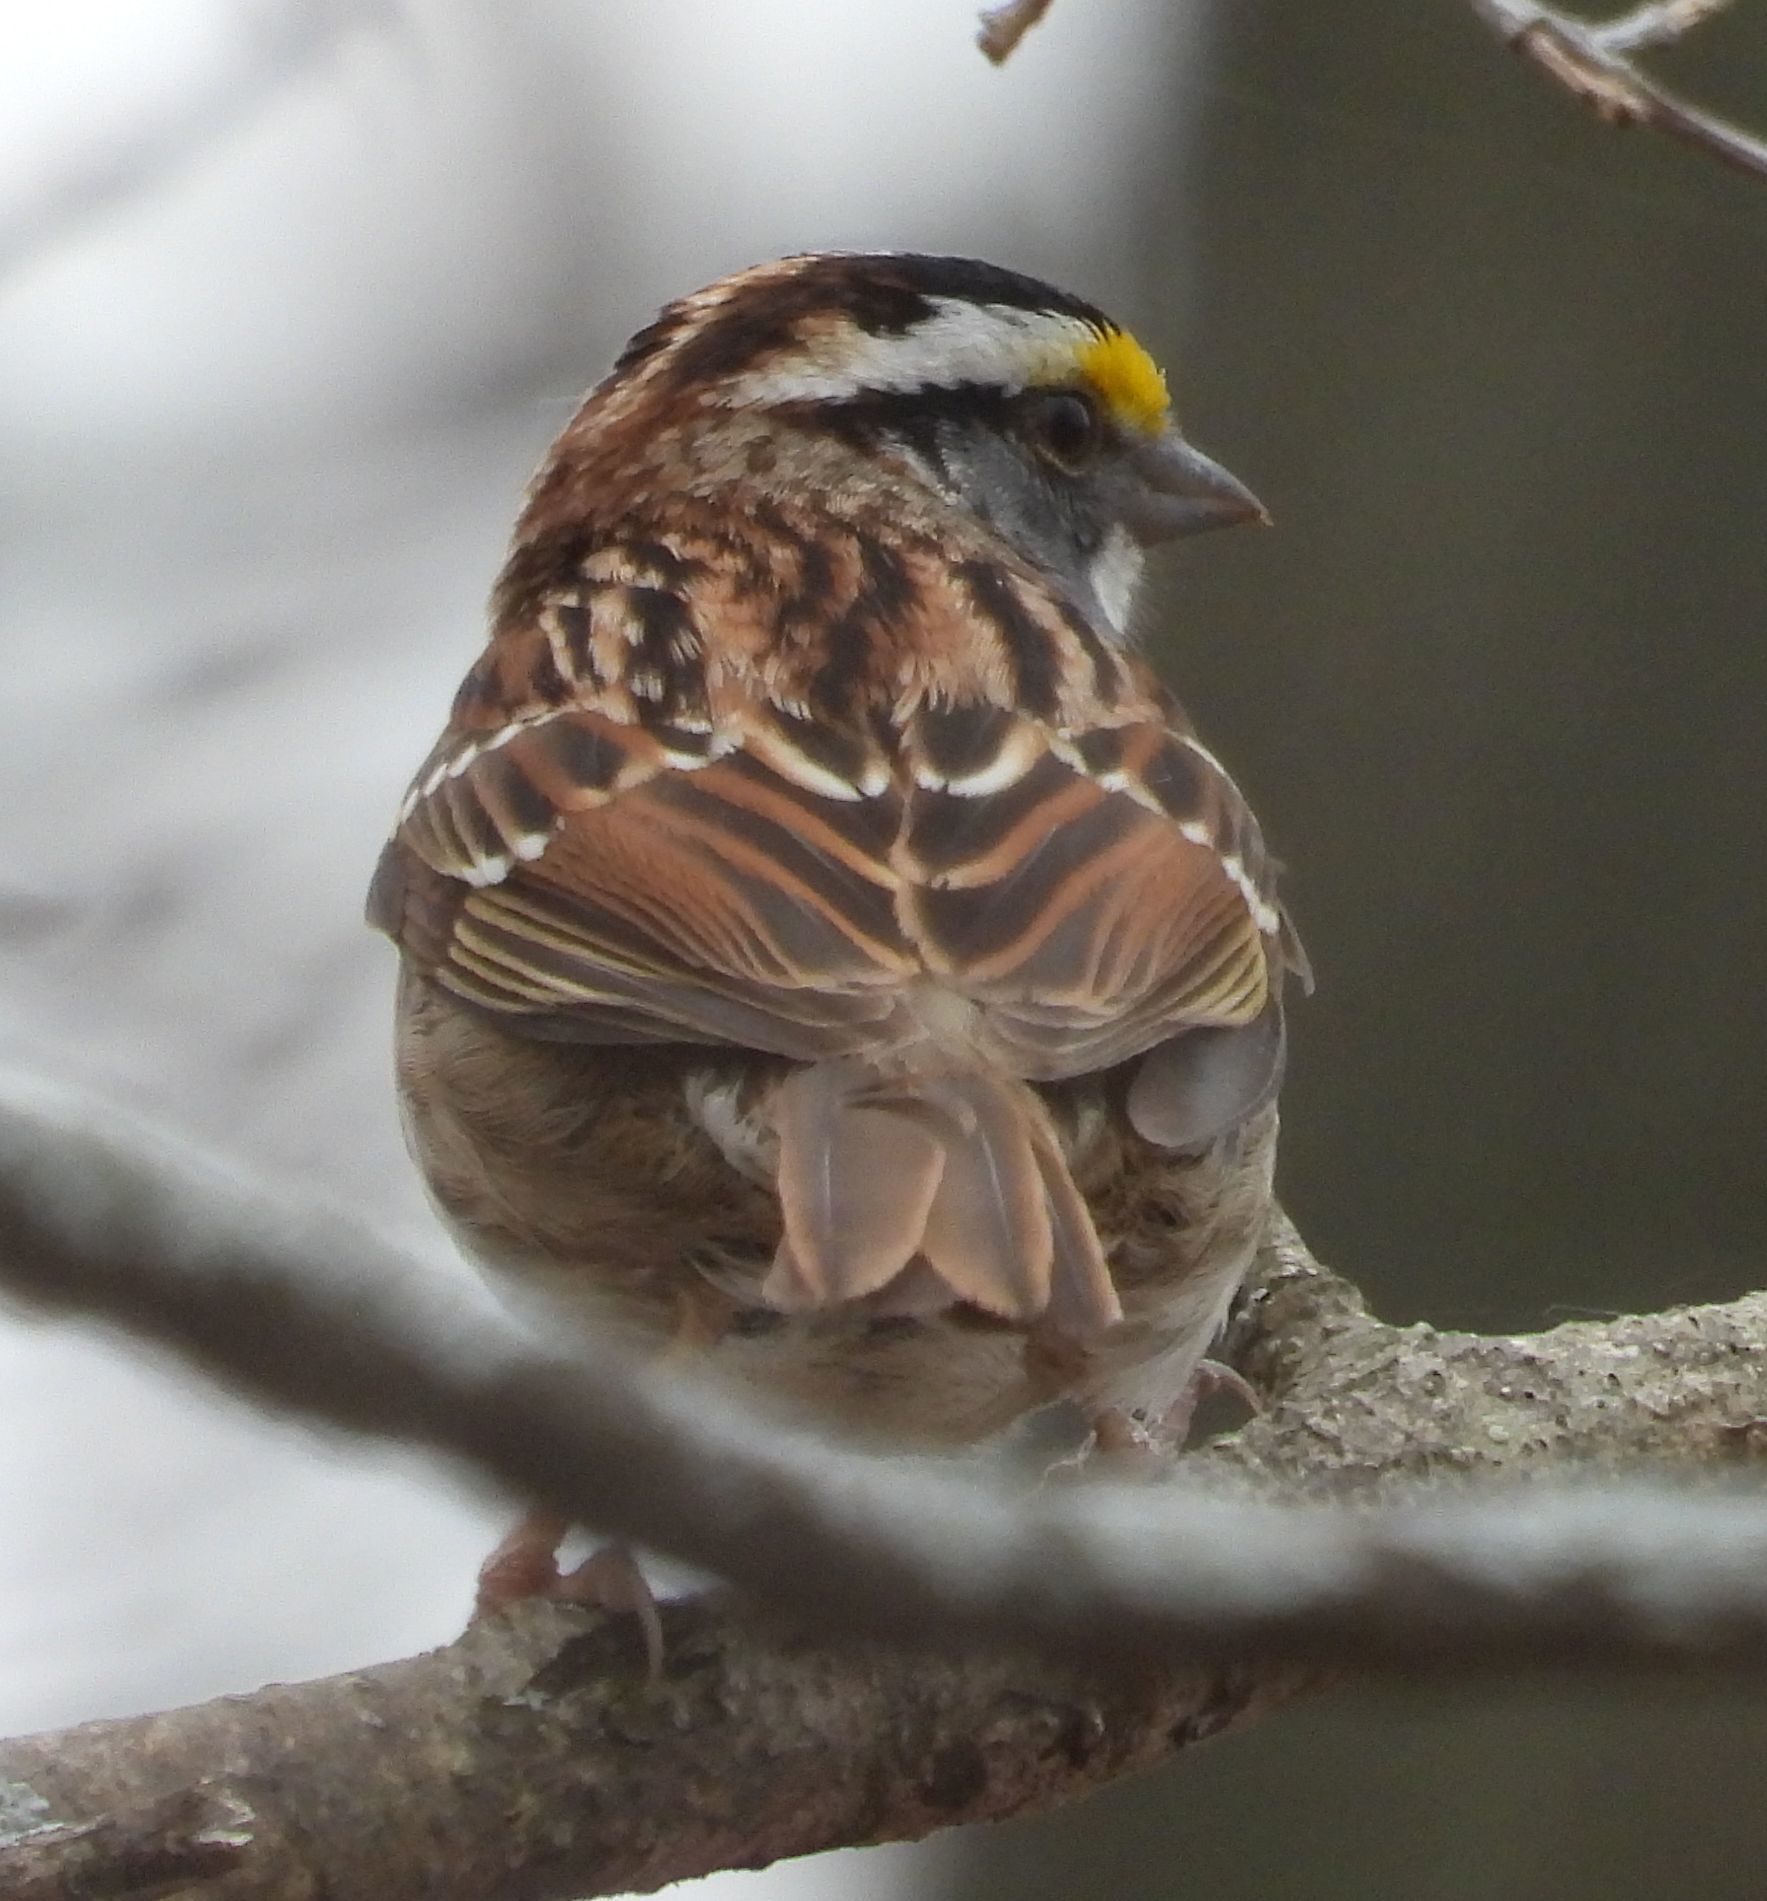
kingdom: Animalia
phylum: Chordata
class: Aves
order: Passeriformes
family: Passerellidae
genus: Zonotrichia
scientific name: Zonotrichia albicollis
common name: White-throated sparrow
